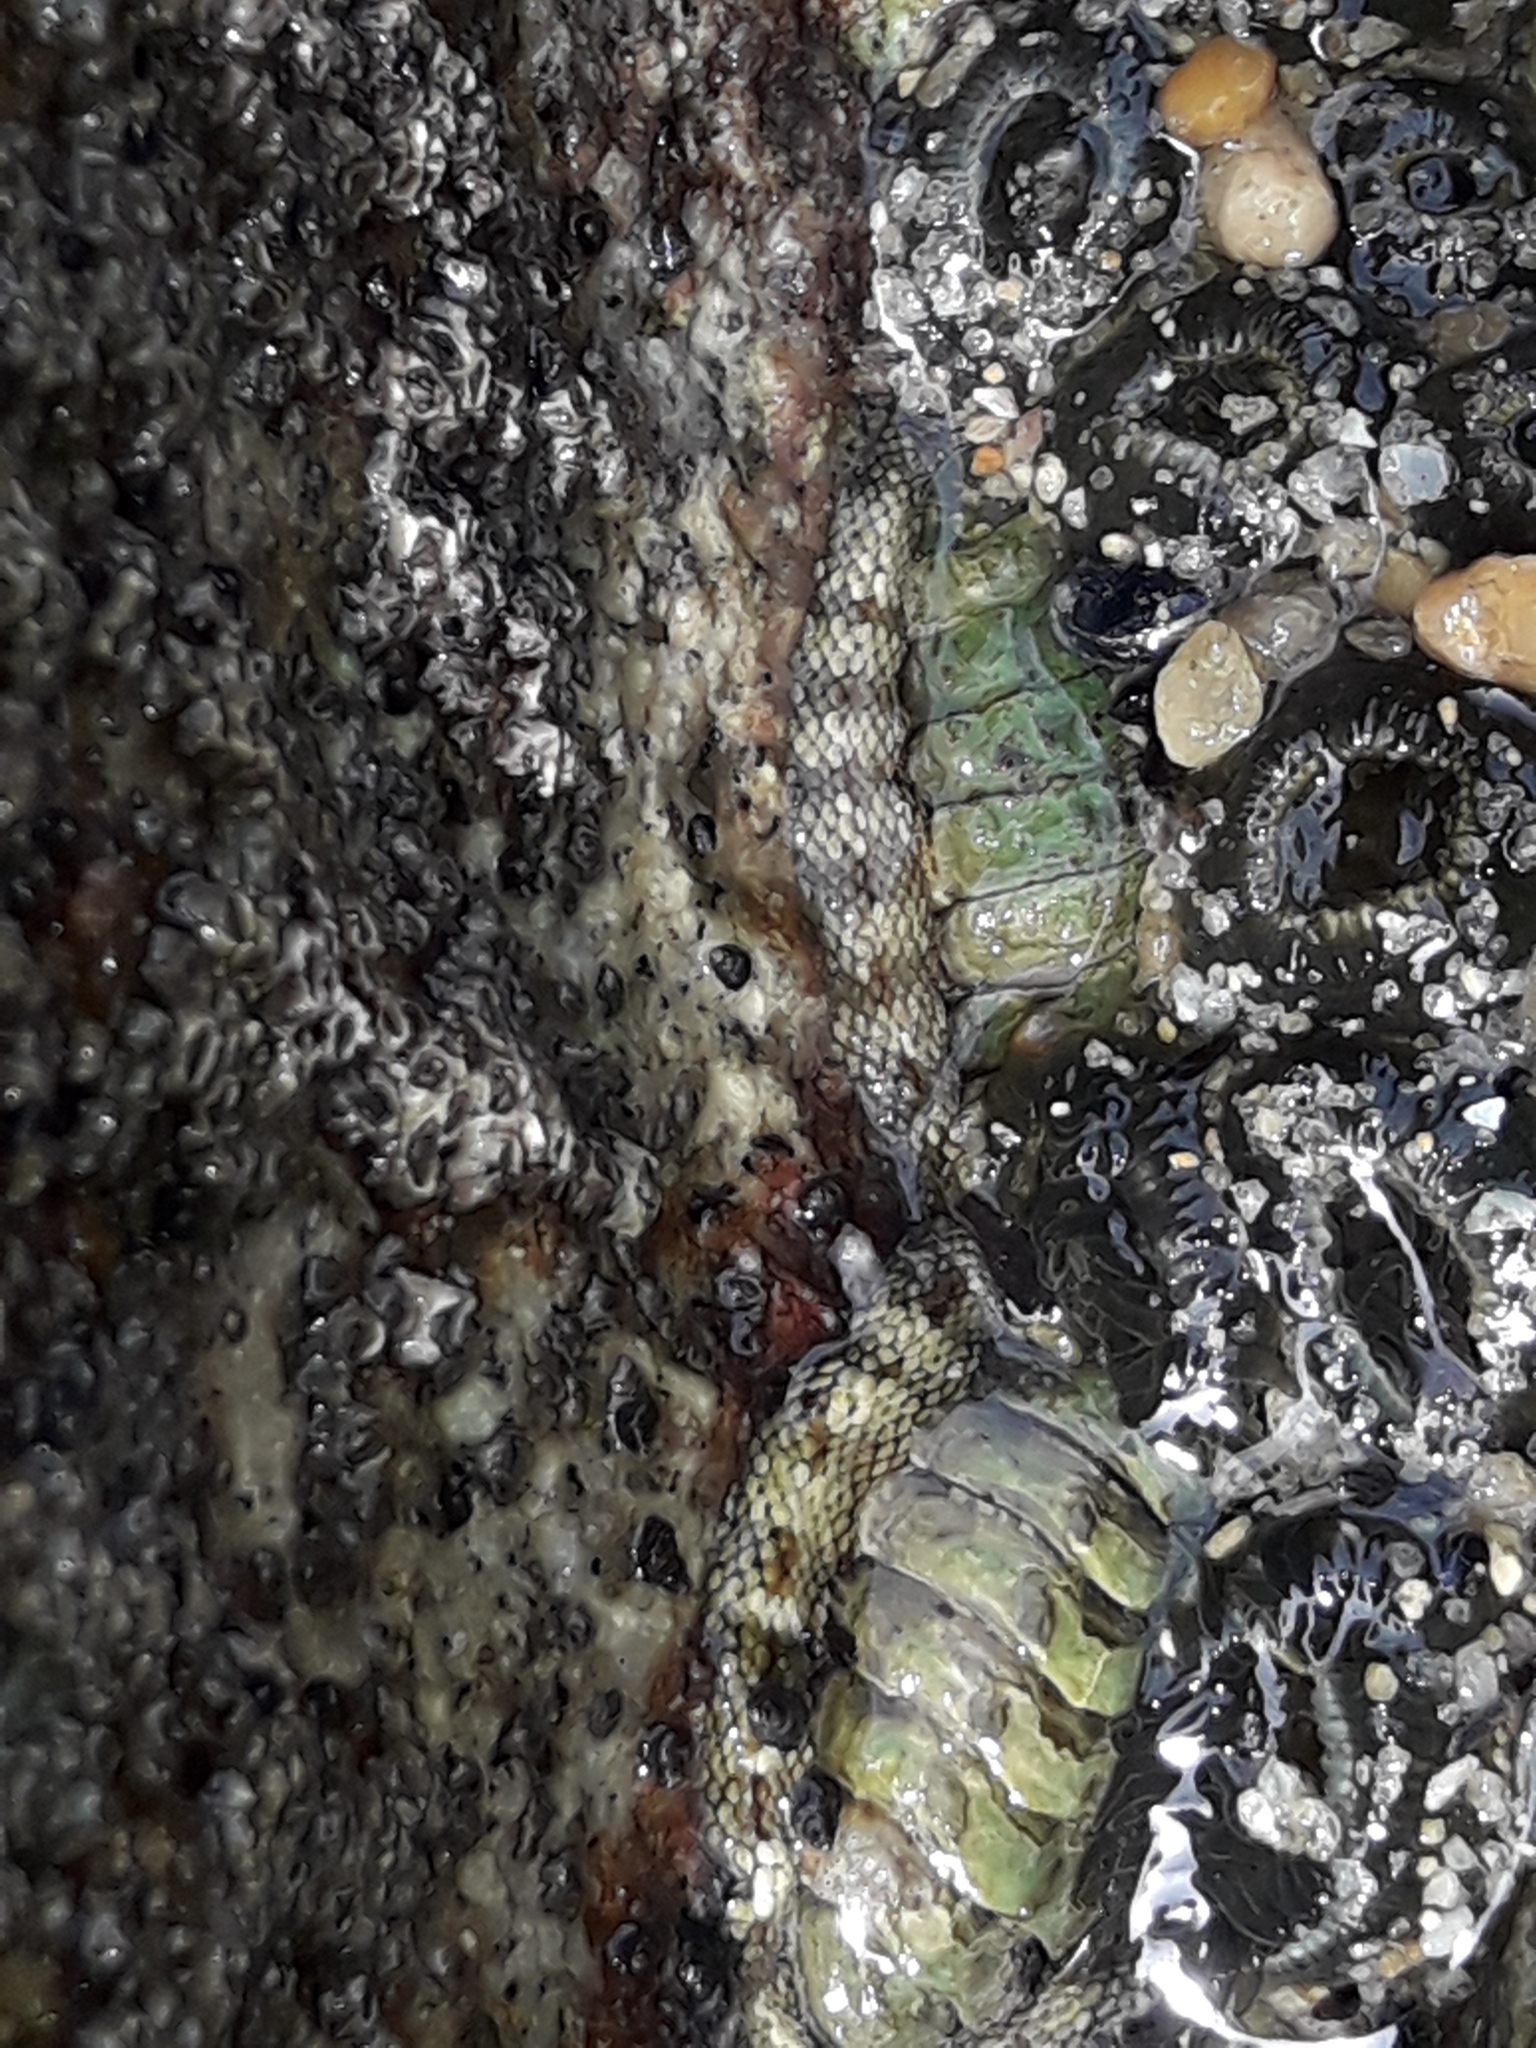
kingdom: Animalia
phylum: Mollusca
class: Polyplacophora
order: Chitonida
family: Chitonidae
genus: Sypharochiton
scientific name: Sypharochiton pelliserpentis
